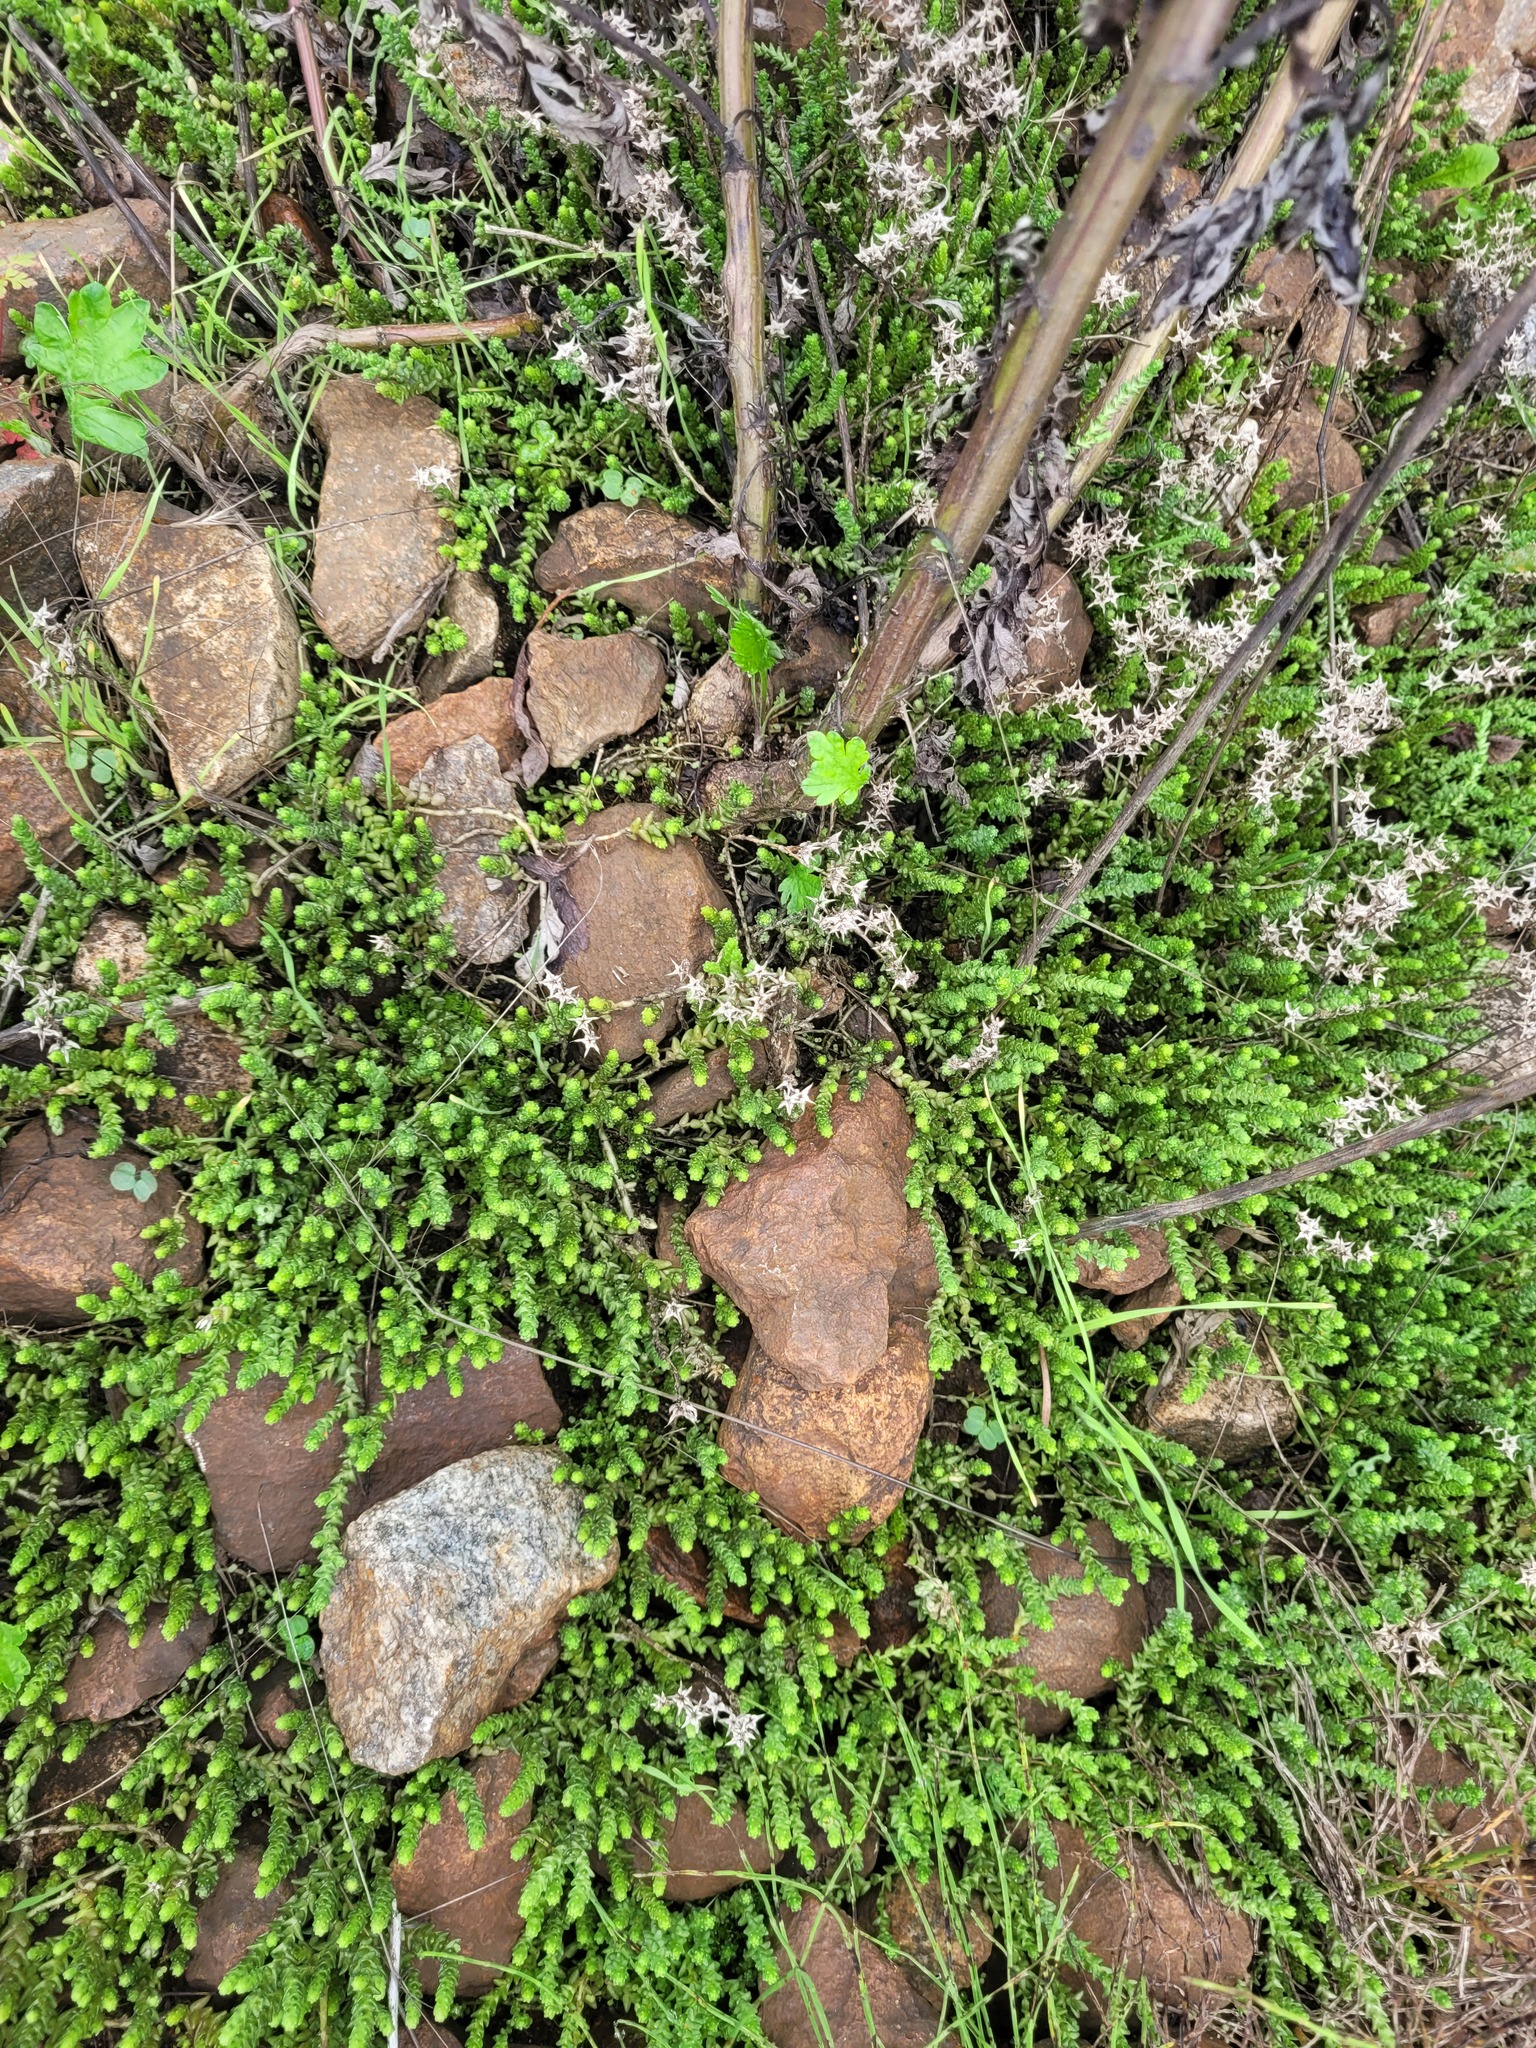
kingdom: Plantae
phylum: Tracheophyta
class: Magnoliopsida
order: Saxifragales
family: Crassulaceae
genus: Sedum
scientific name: Sedum acre
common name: Biting stonecrop
